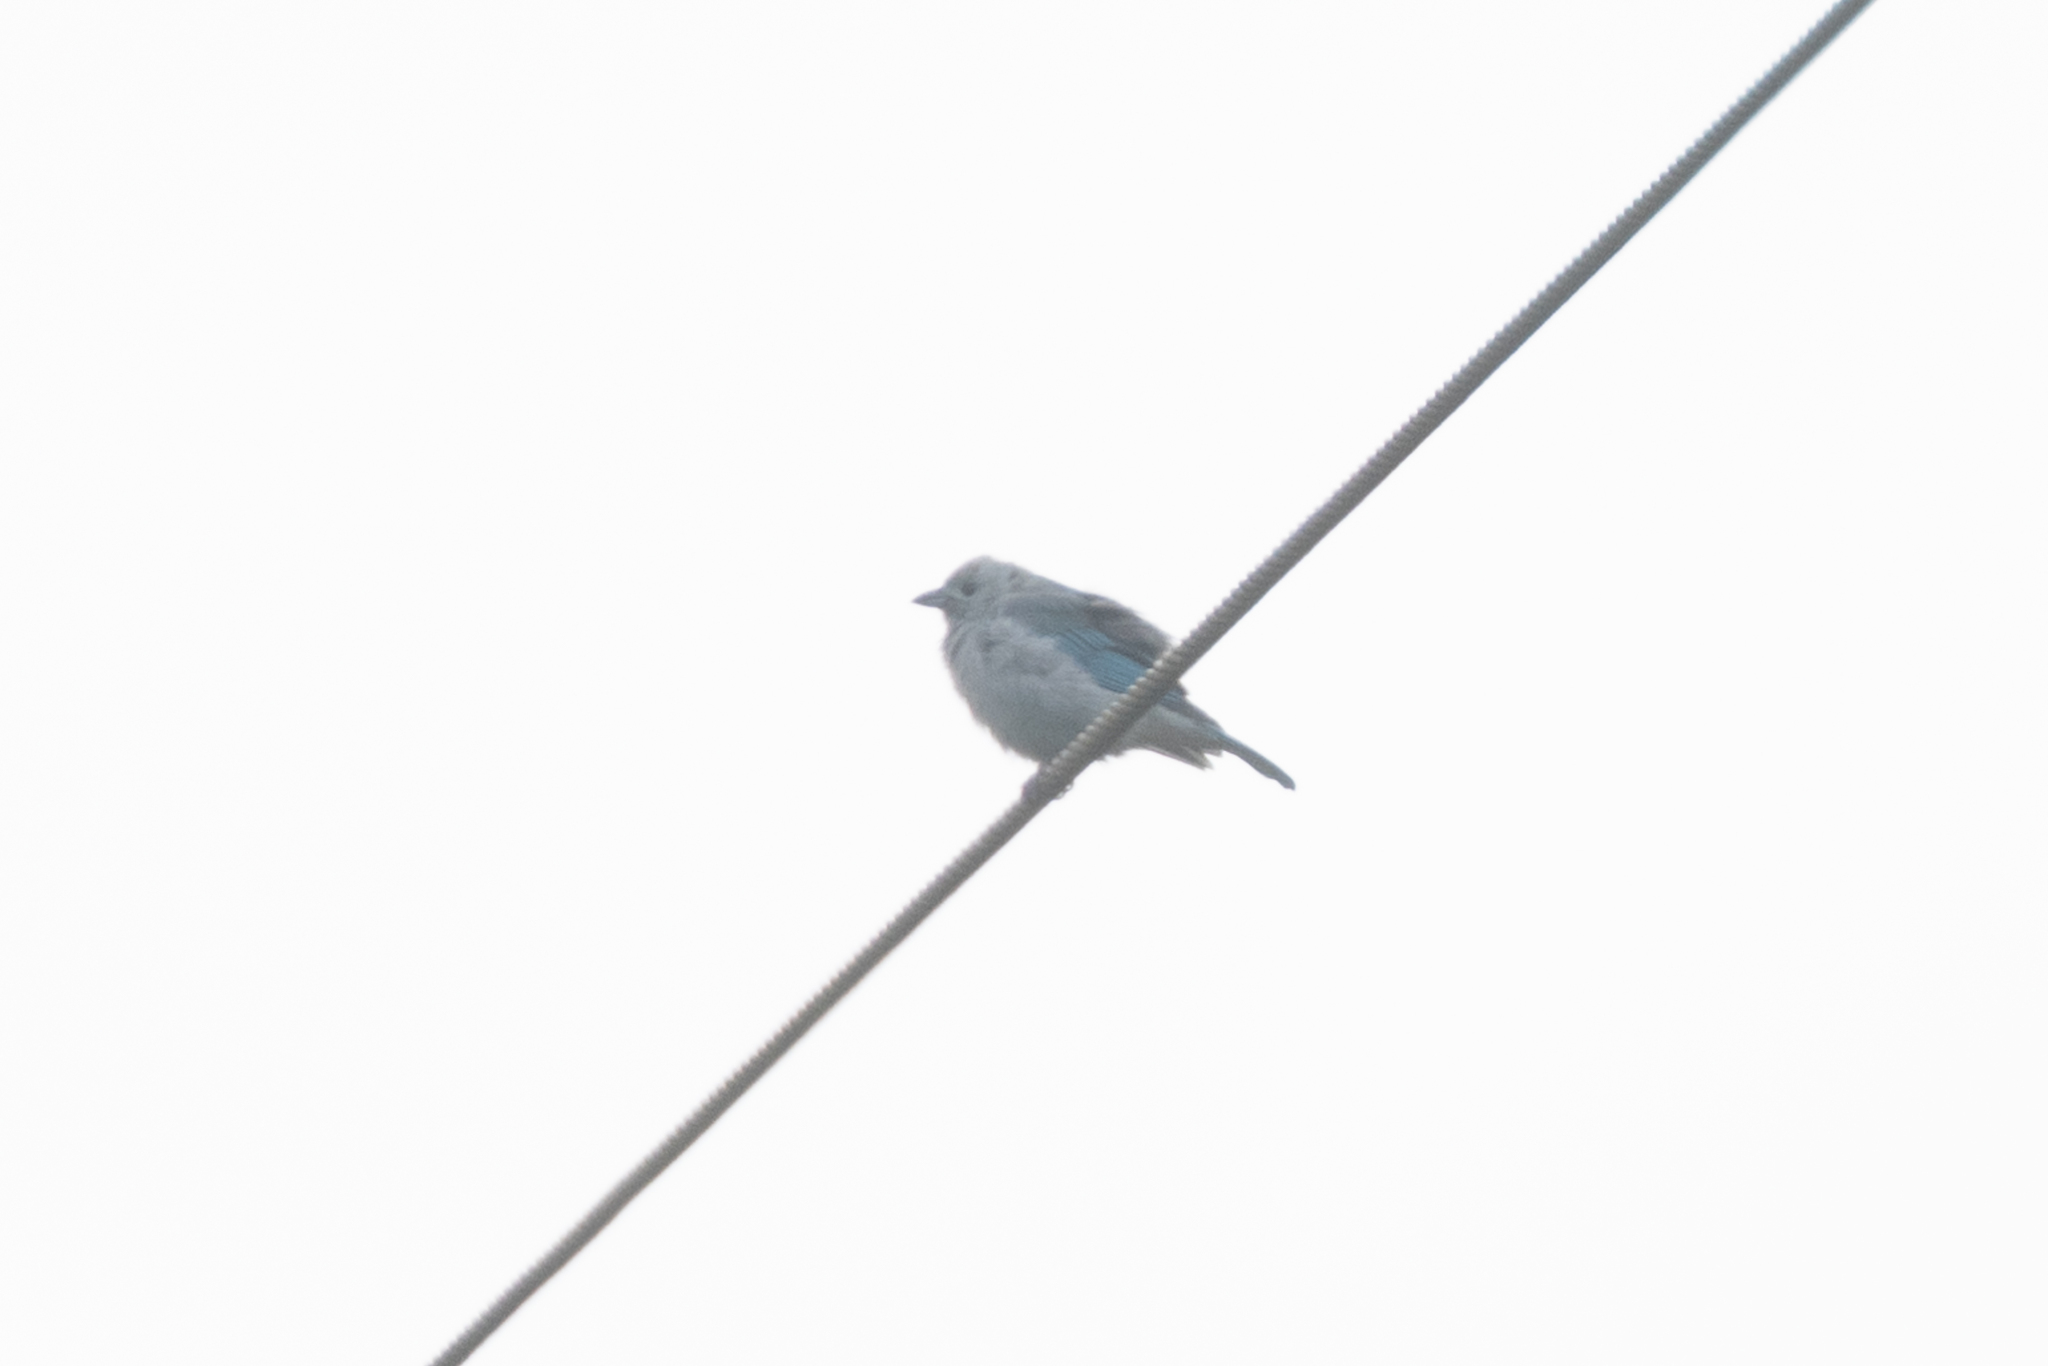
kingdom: Animalia
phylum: Chordata
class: Aves
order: Passeriformes
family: Thraupidae
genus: Thraupis
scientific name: Thraupis episcopus
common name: Blue-grey tanager
